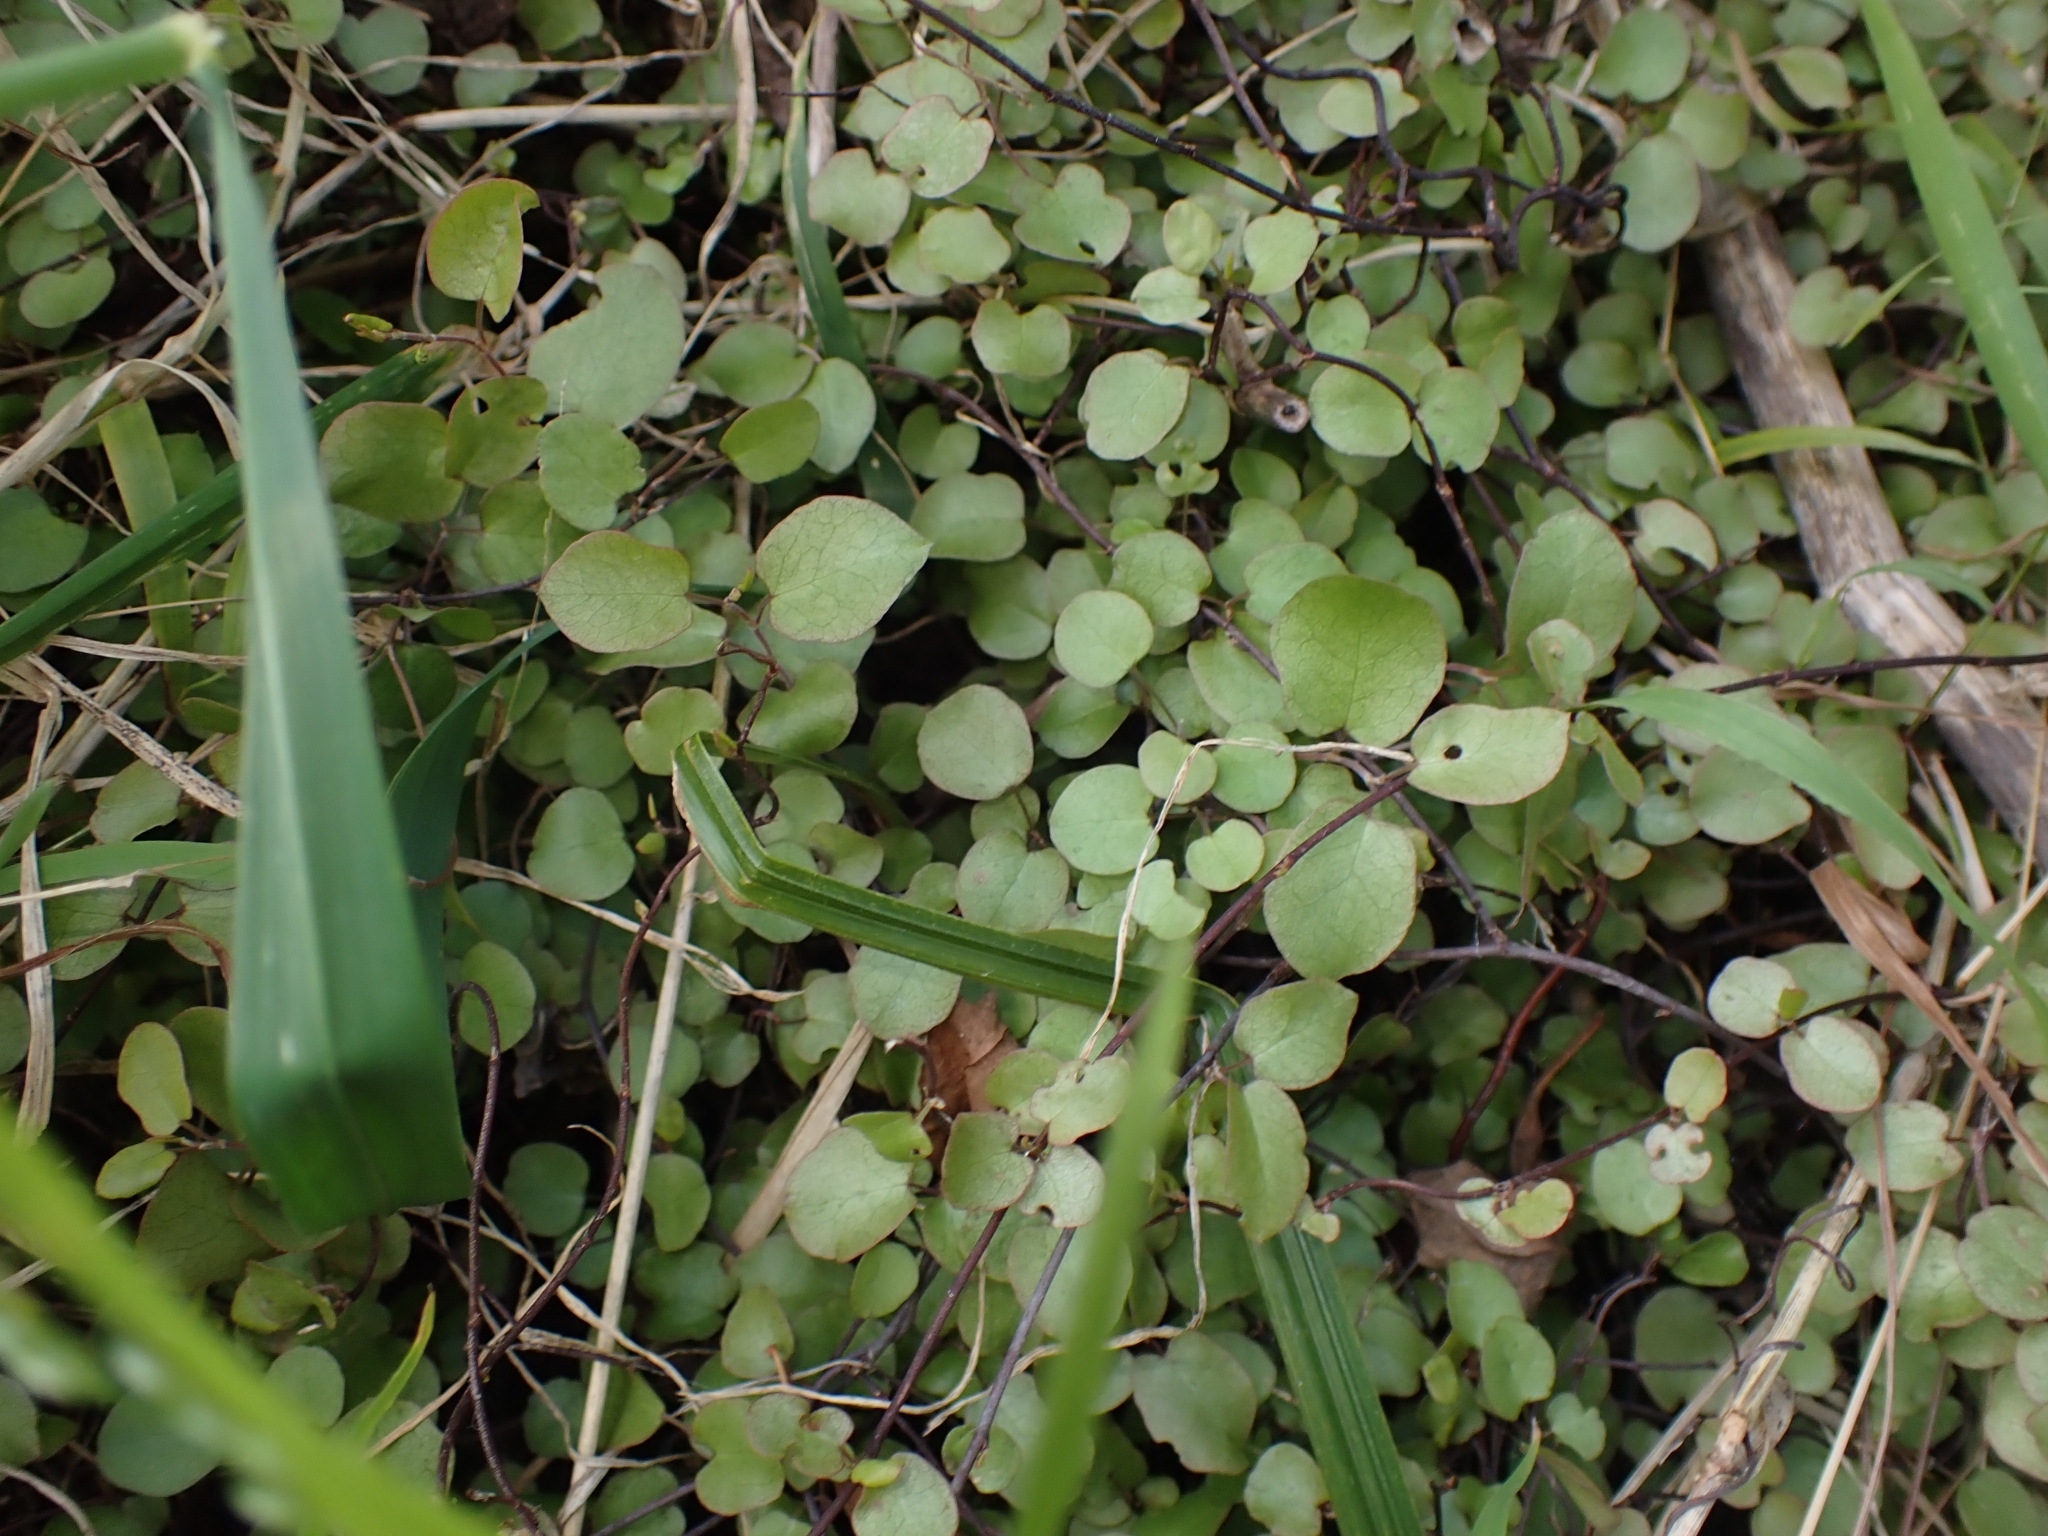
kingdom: Plantae
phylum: Tracheophyta
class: Magnoliopsida
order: Caryophyllales
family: Polygonaceae
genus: Muehlenbeckia
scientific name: Muehlenbeckia complexa
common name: Wireplant
